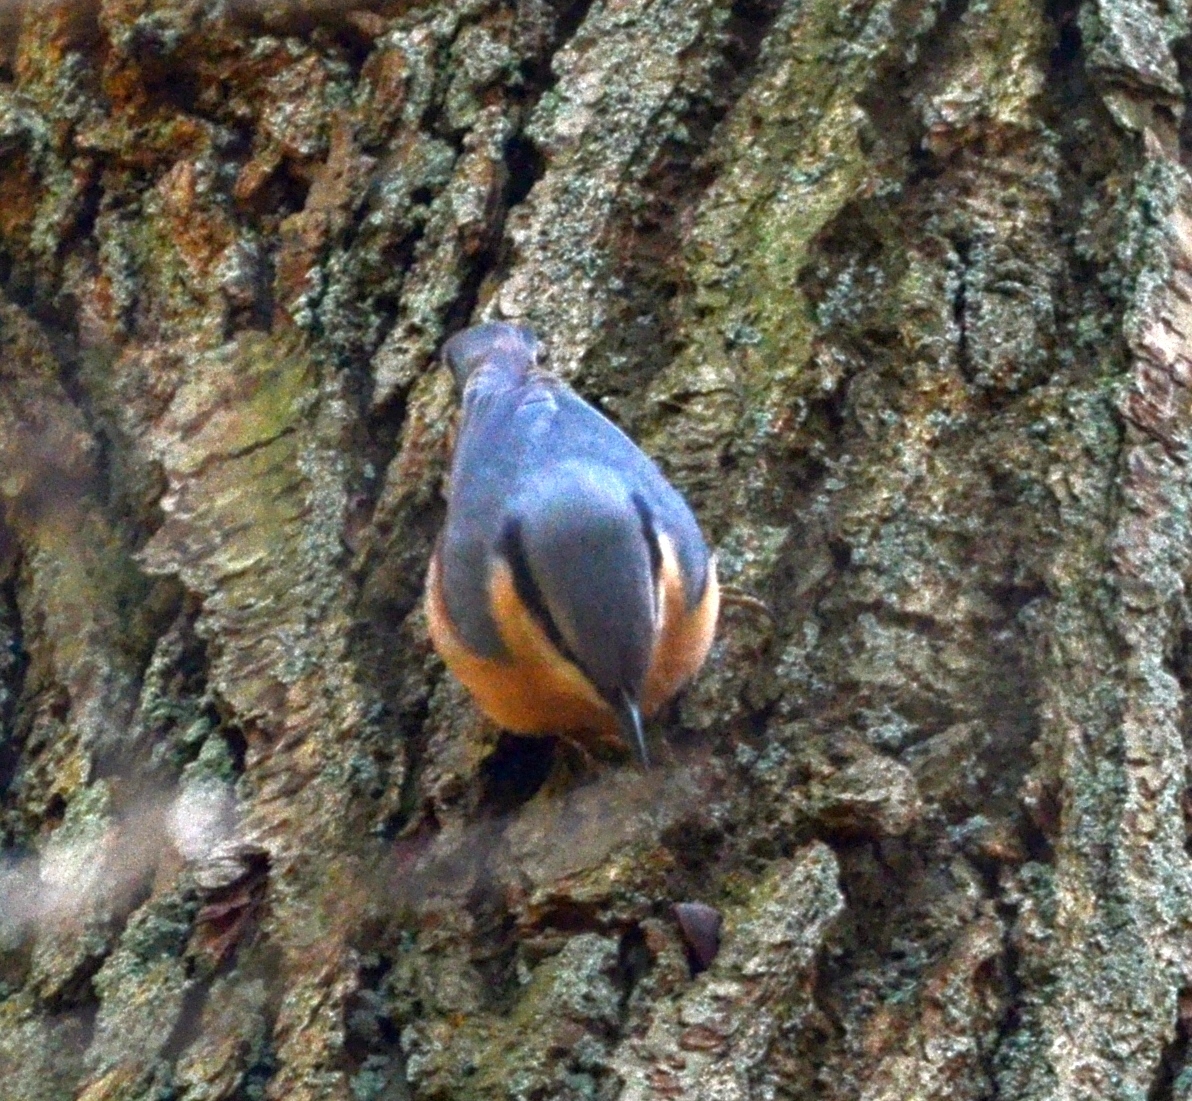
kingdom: Animalia
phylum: Chordata
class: Aves
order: Passeriformes
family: Sittidae
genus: Sitta
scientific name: Sitta europaea
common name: Eurasian nuthatch
